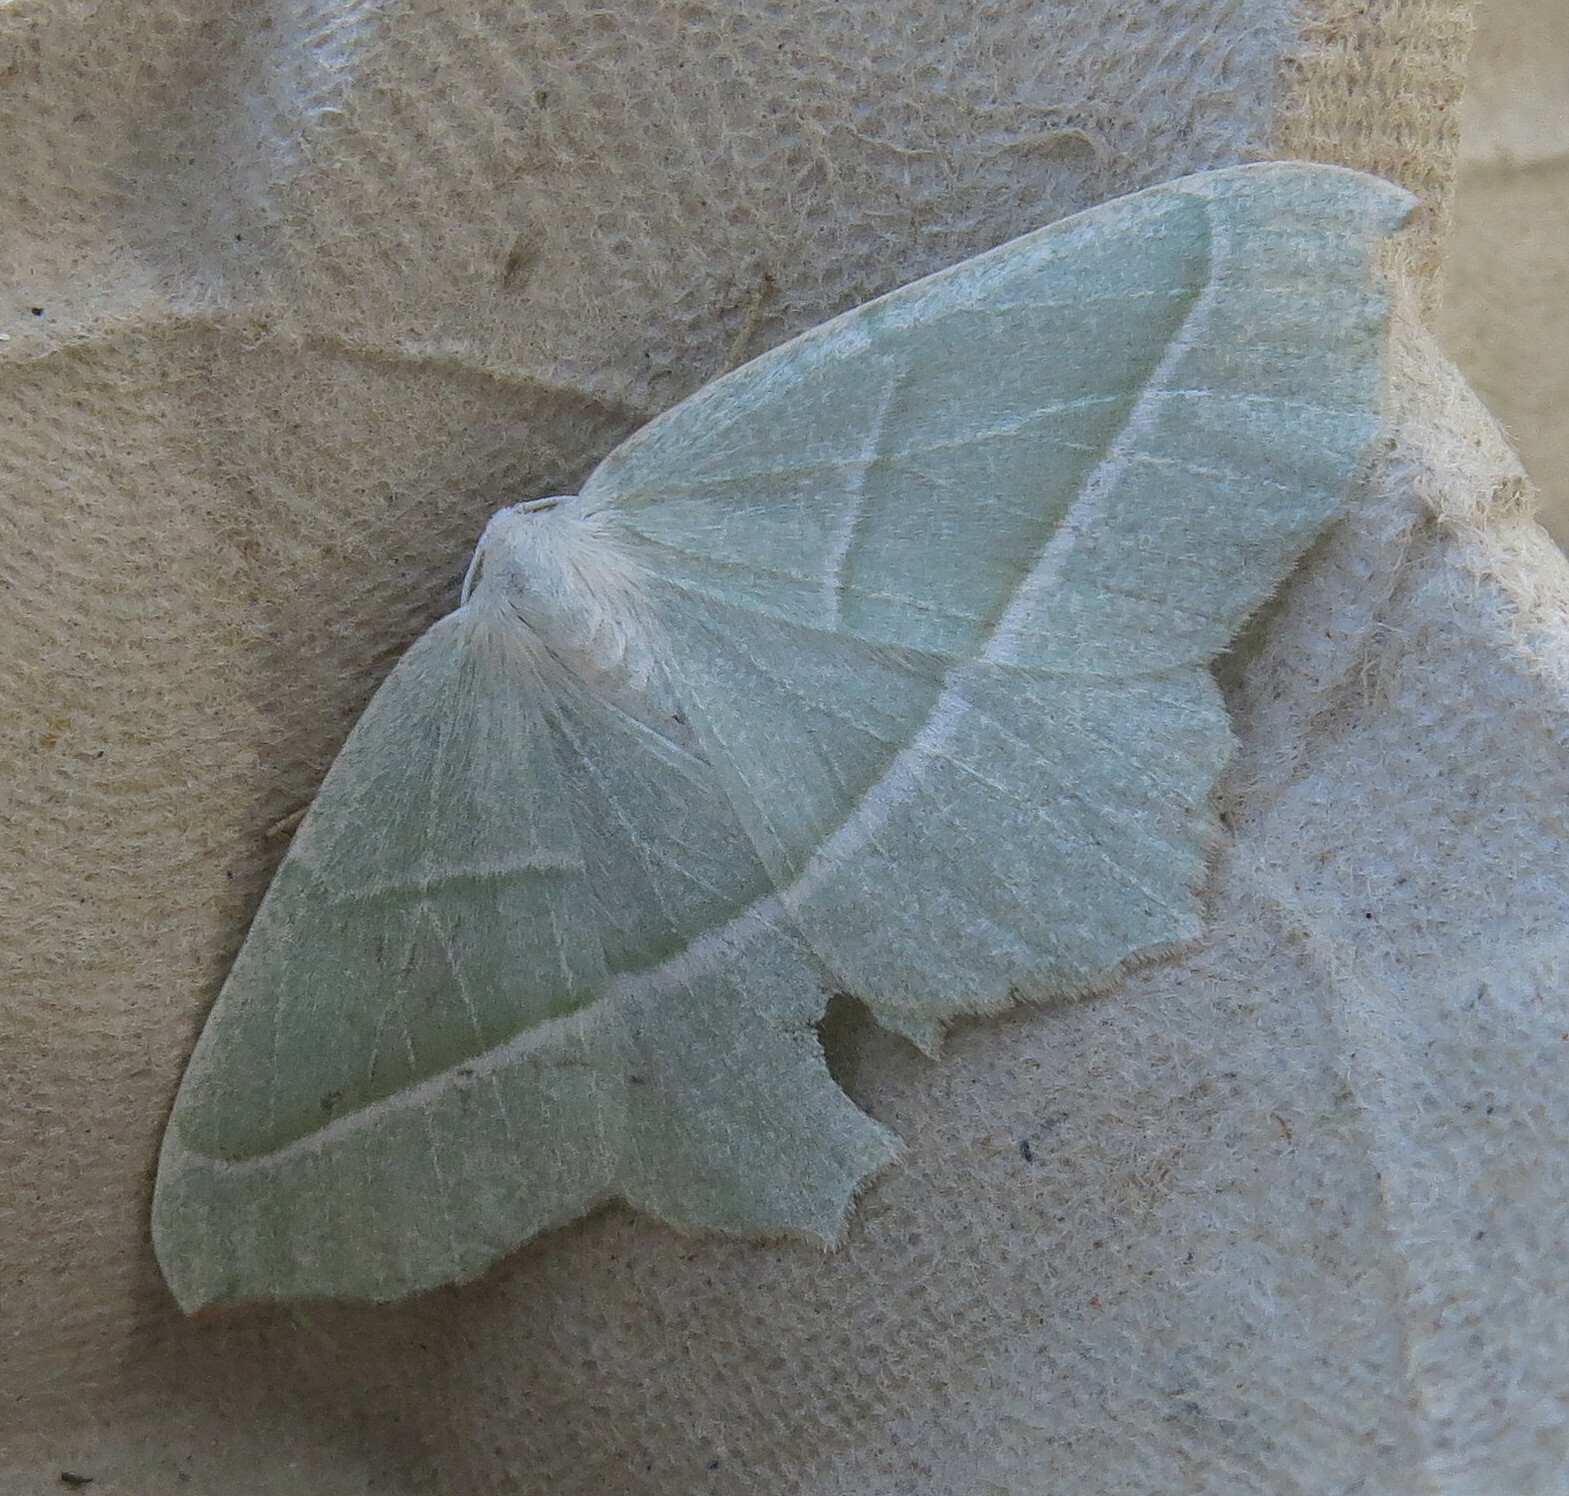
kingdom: Animalia
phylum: Arthropoda
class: Insecta
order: Lepidoptera
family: Geometridae
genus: Campaea
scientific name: Campaea margaritaria
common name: Light emerald
